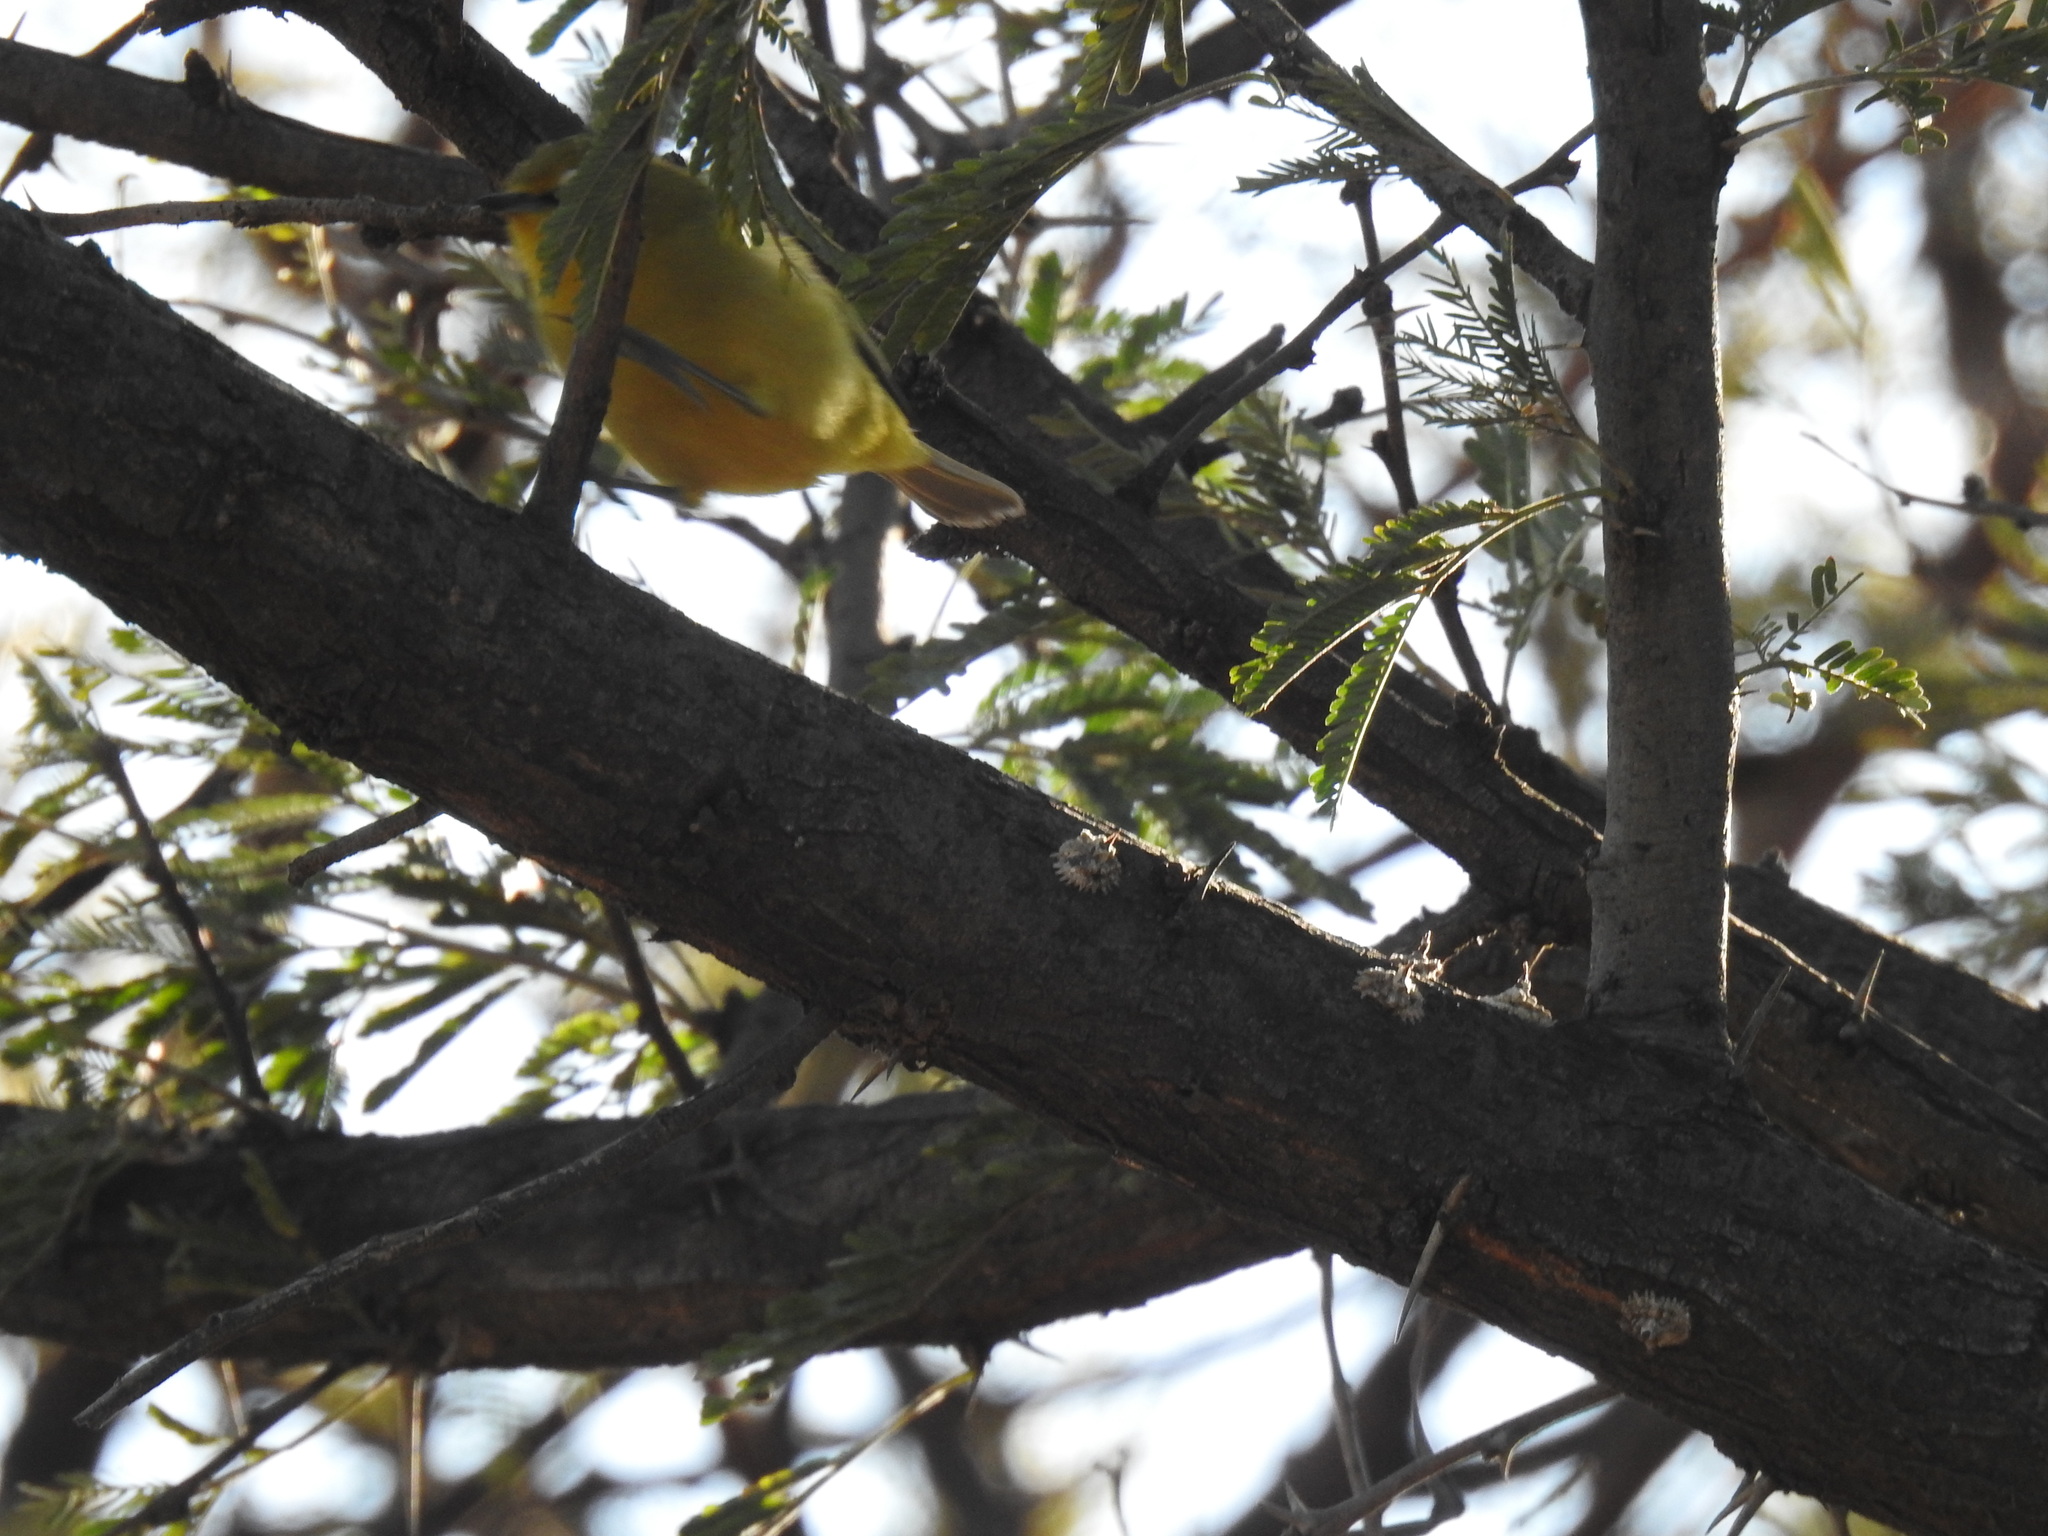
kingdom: Animalia
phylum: Chordata
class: Aves
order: Passeriformes
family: Zosteropidae
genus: Zosterops
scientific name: Zosterops virens
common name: Cape white-eye
